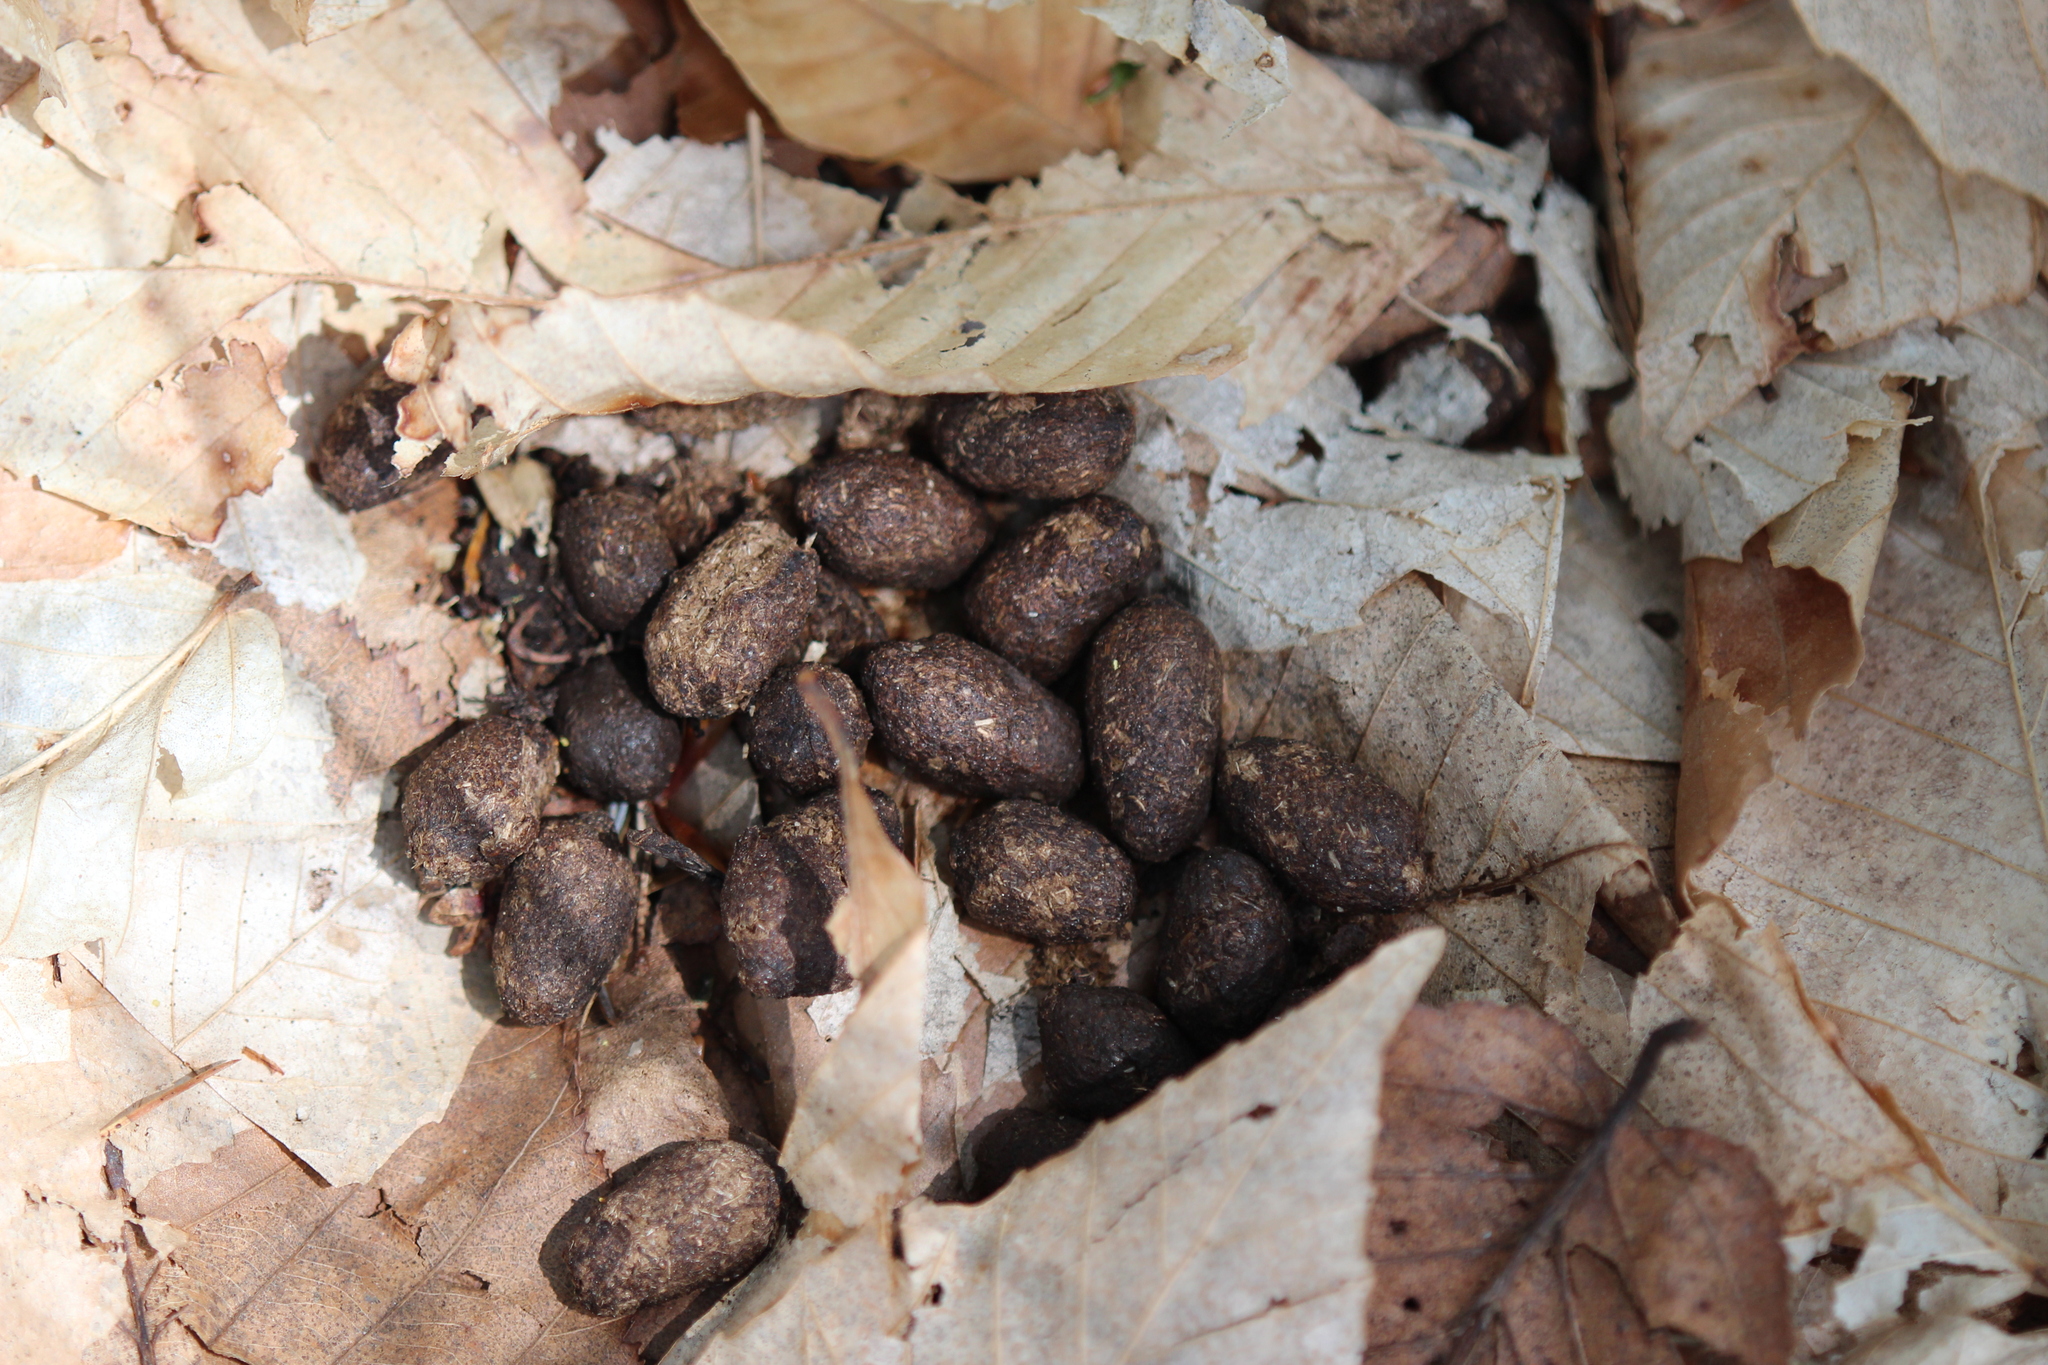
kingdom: Animalia
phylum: Chordata
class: Mammalia
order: Artiodactyla
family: Cervidae
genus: Odocoileus
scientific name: Odocoileus virginianus
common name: White-tailed deer
